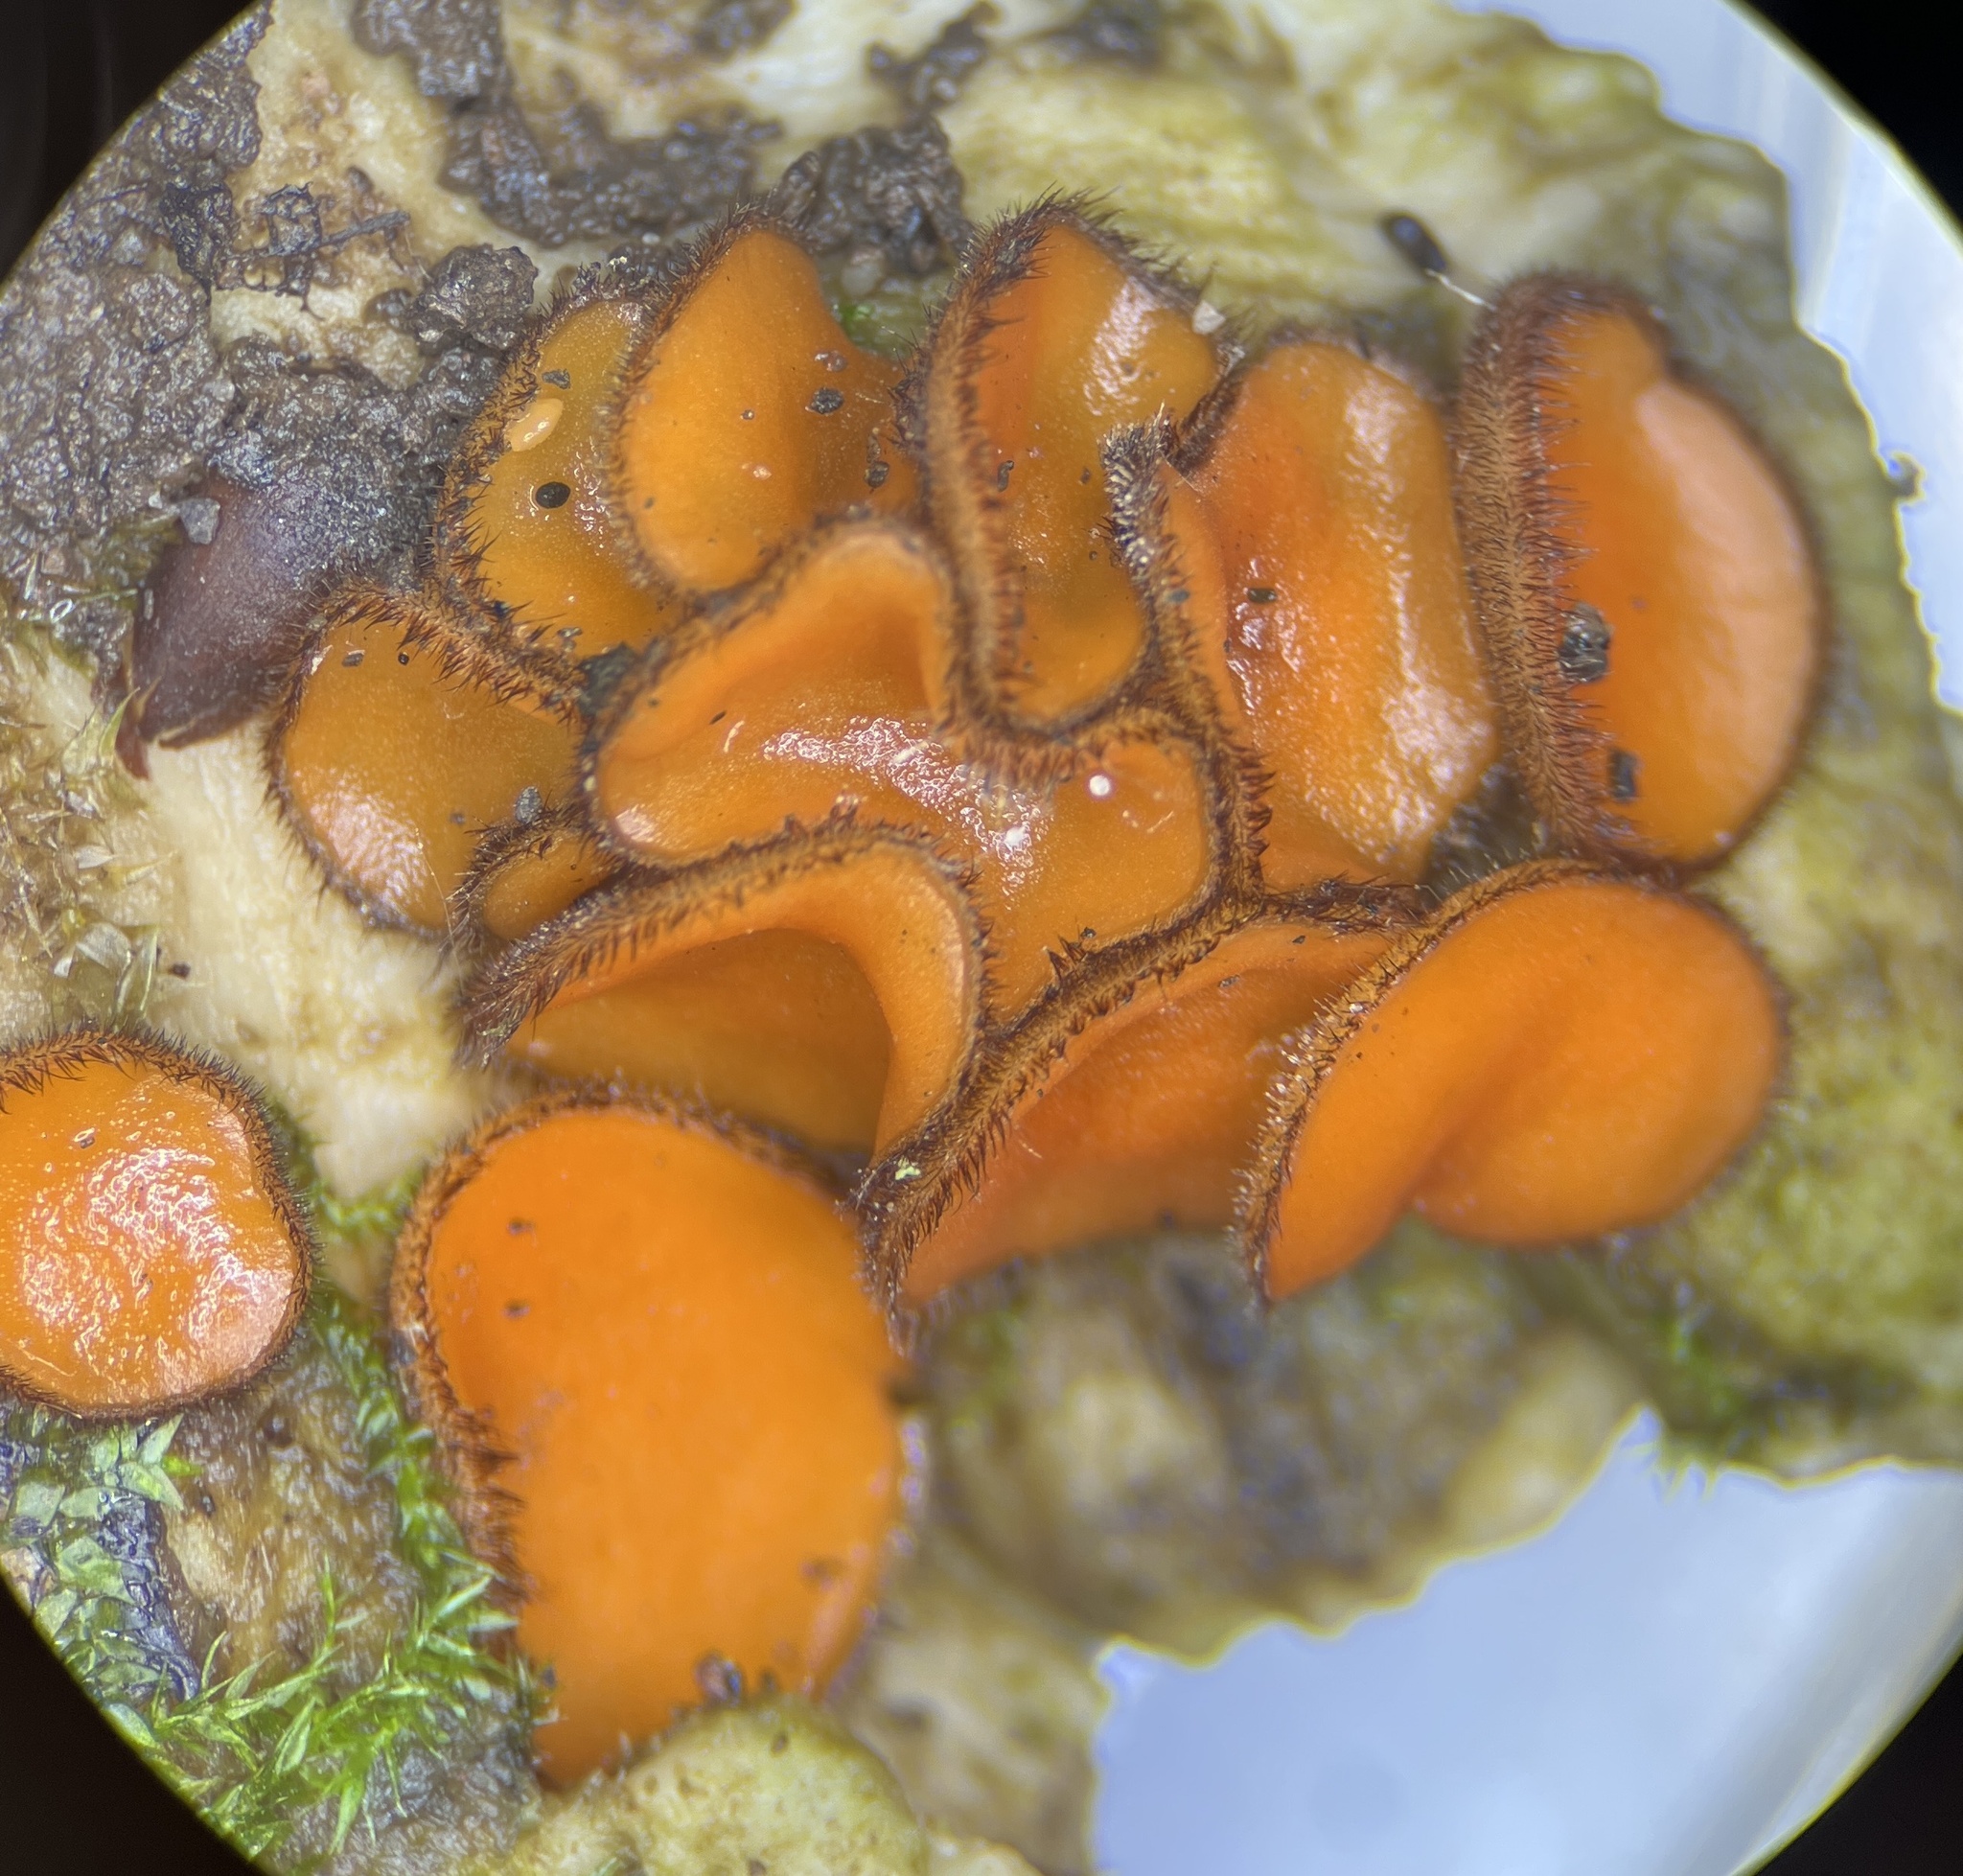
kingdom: Fungi
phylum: Ascomycota
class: Pezizomycetes
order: Pezizales
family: Pyronemataceae
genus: Scutellinia
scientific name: Scutellinia subhirtella
